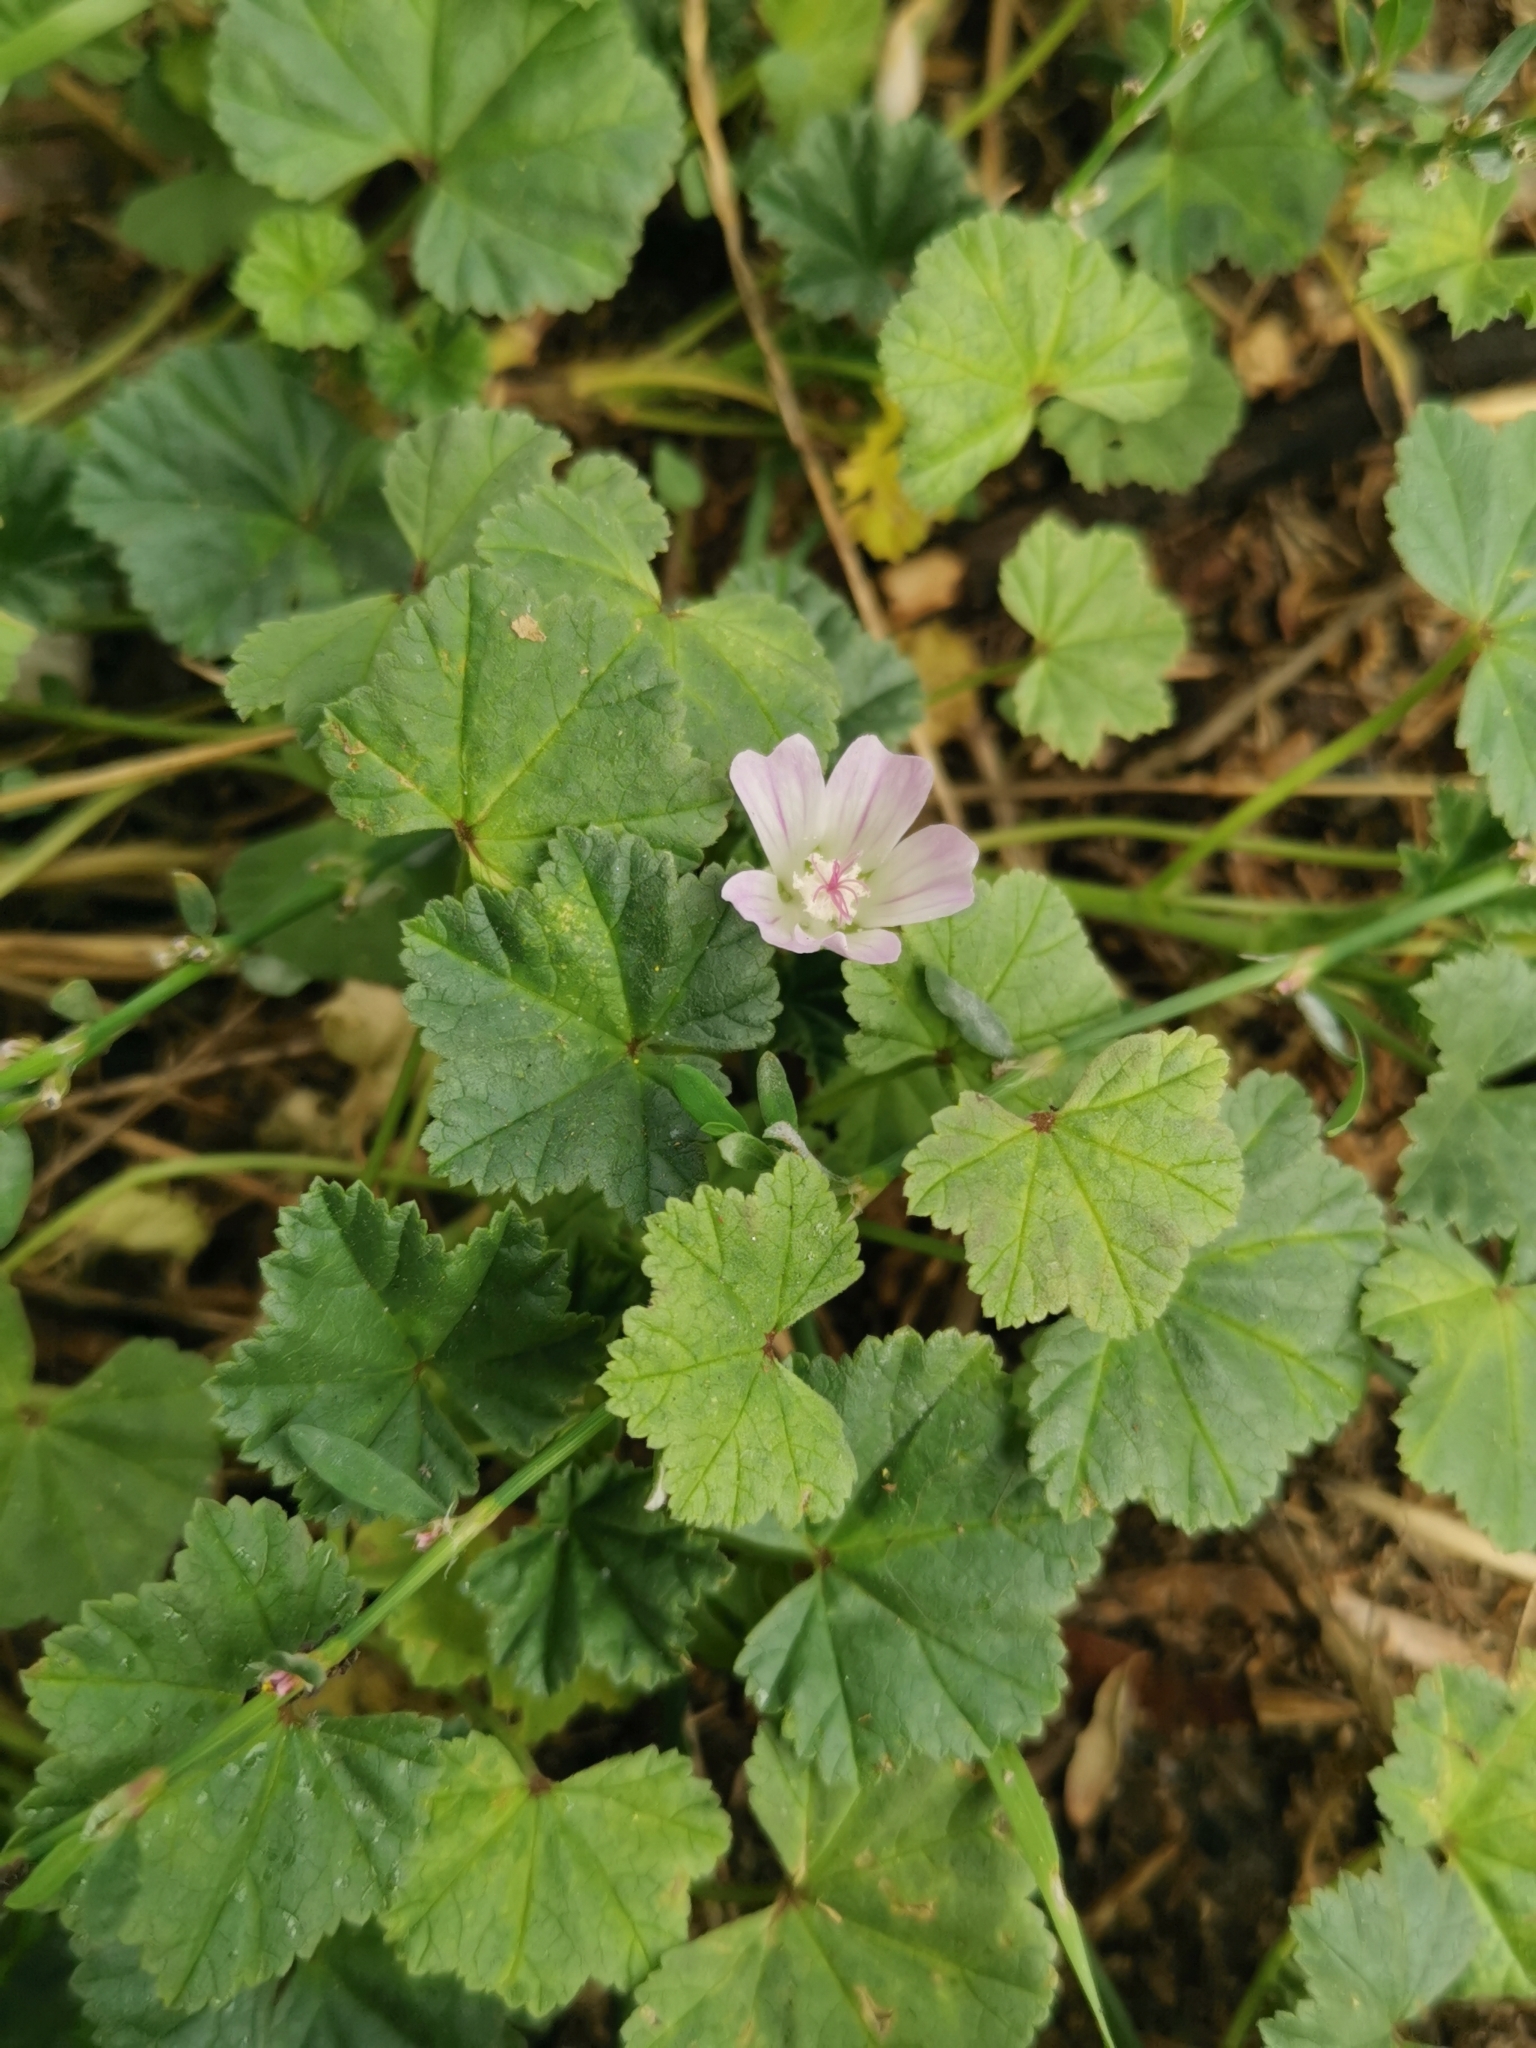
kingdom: Plantae
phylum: Tracheophyta
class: Magnoliopsida
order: Malvales
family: Malvaceae
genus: Malva
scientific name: Malva neglecta
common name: Common mallow
